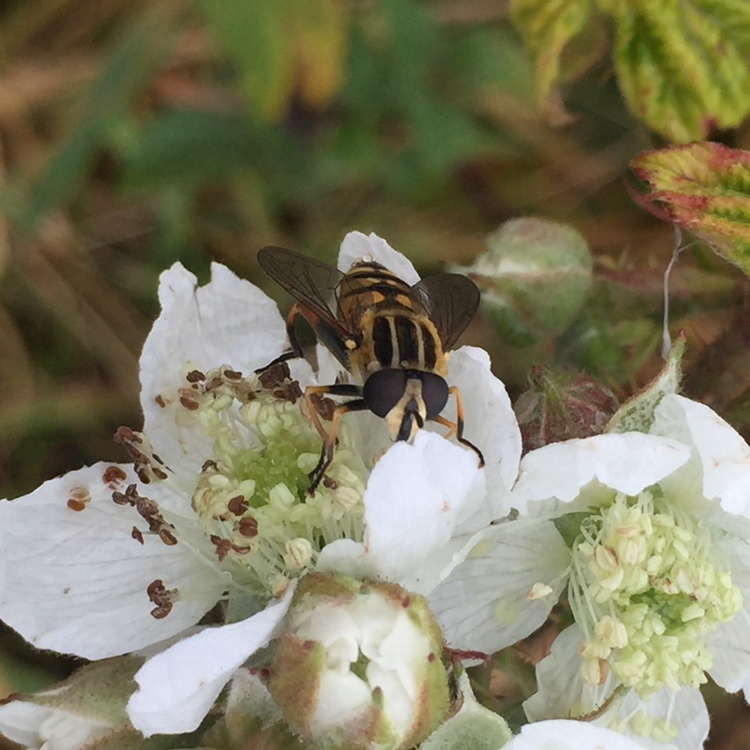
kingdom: Animalia
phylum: Arthropoda
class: Insecta
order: Diptera
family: Syrphidae
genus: Helophilus
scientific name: Helophilus pendulus
